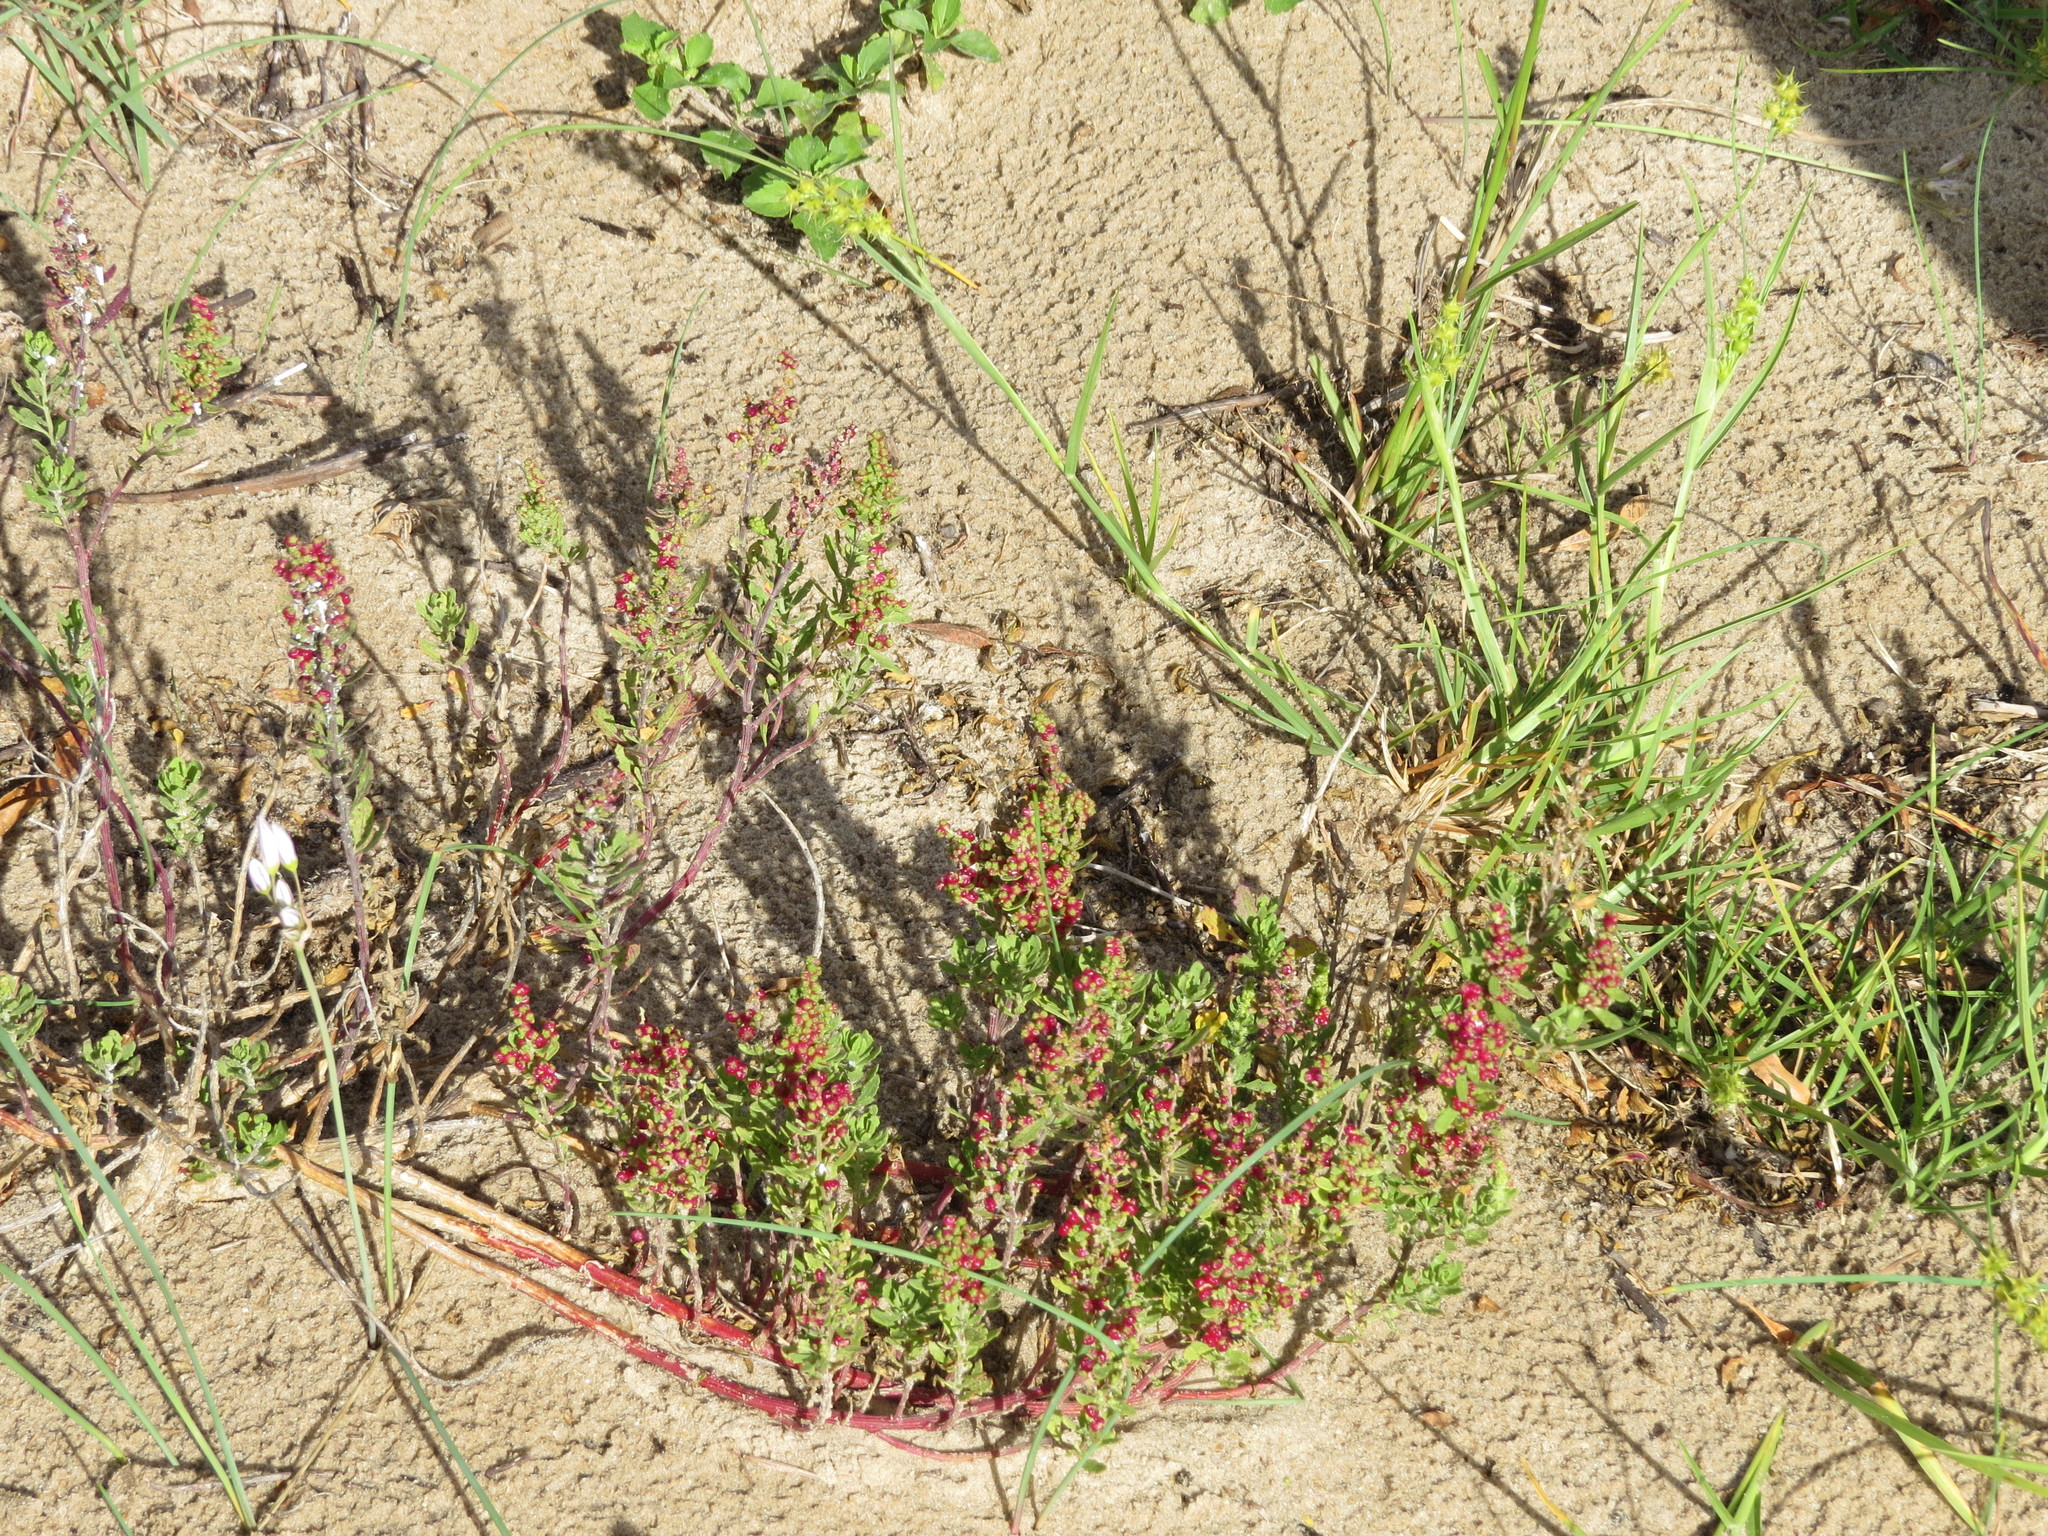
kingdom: Plantae
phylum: Tracheophyta
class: Magnoliopsida
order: Caryophyllales
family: Amaranthaceae
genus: Dysphania
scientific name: Dysphania retusa
